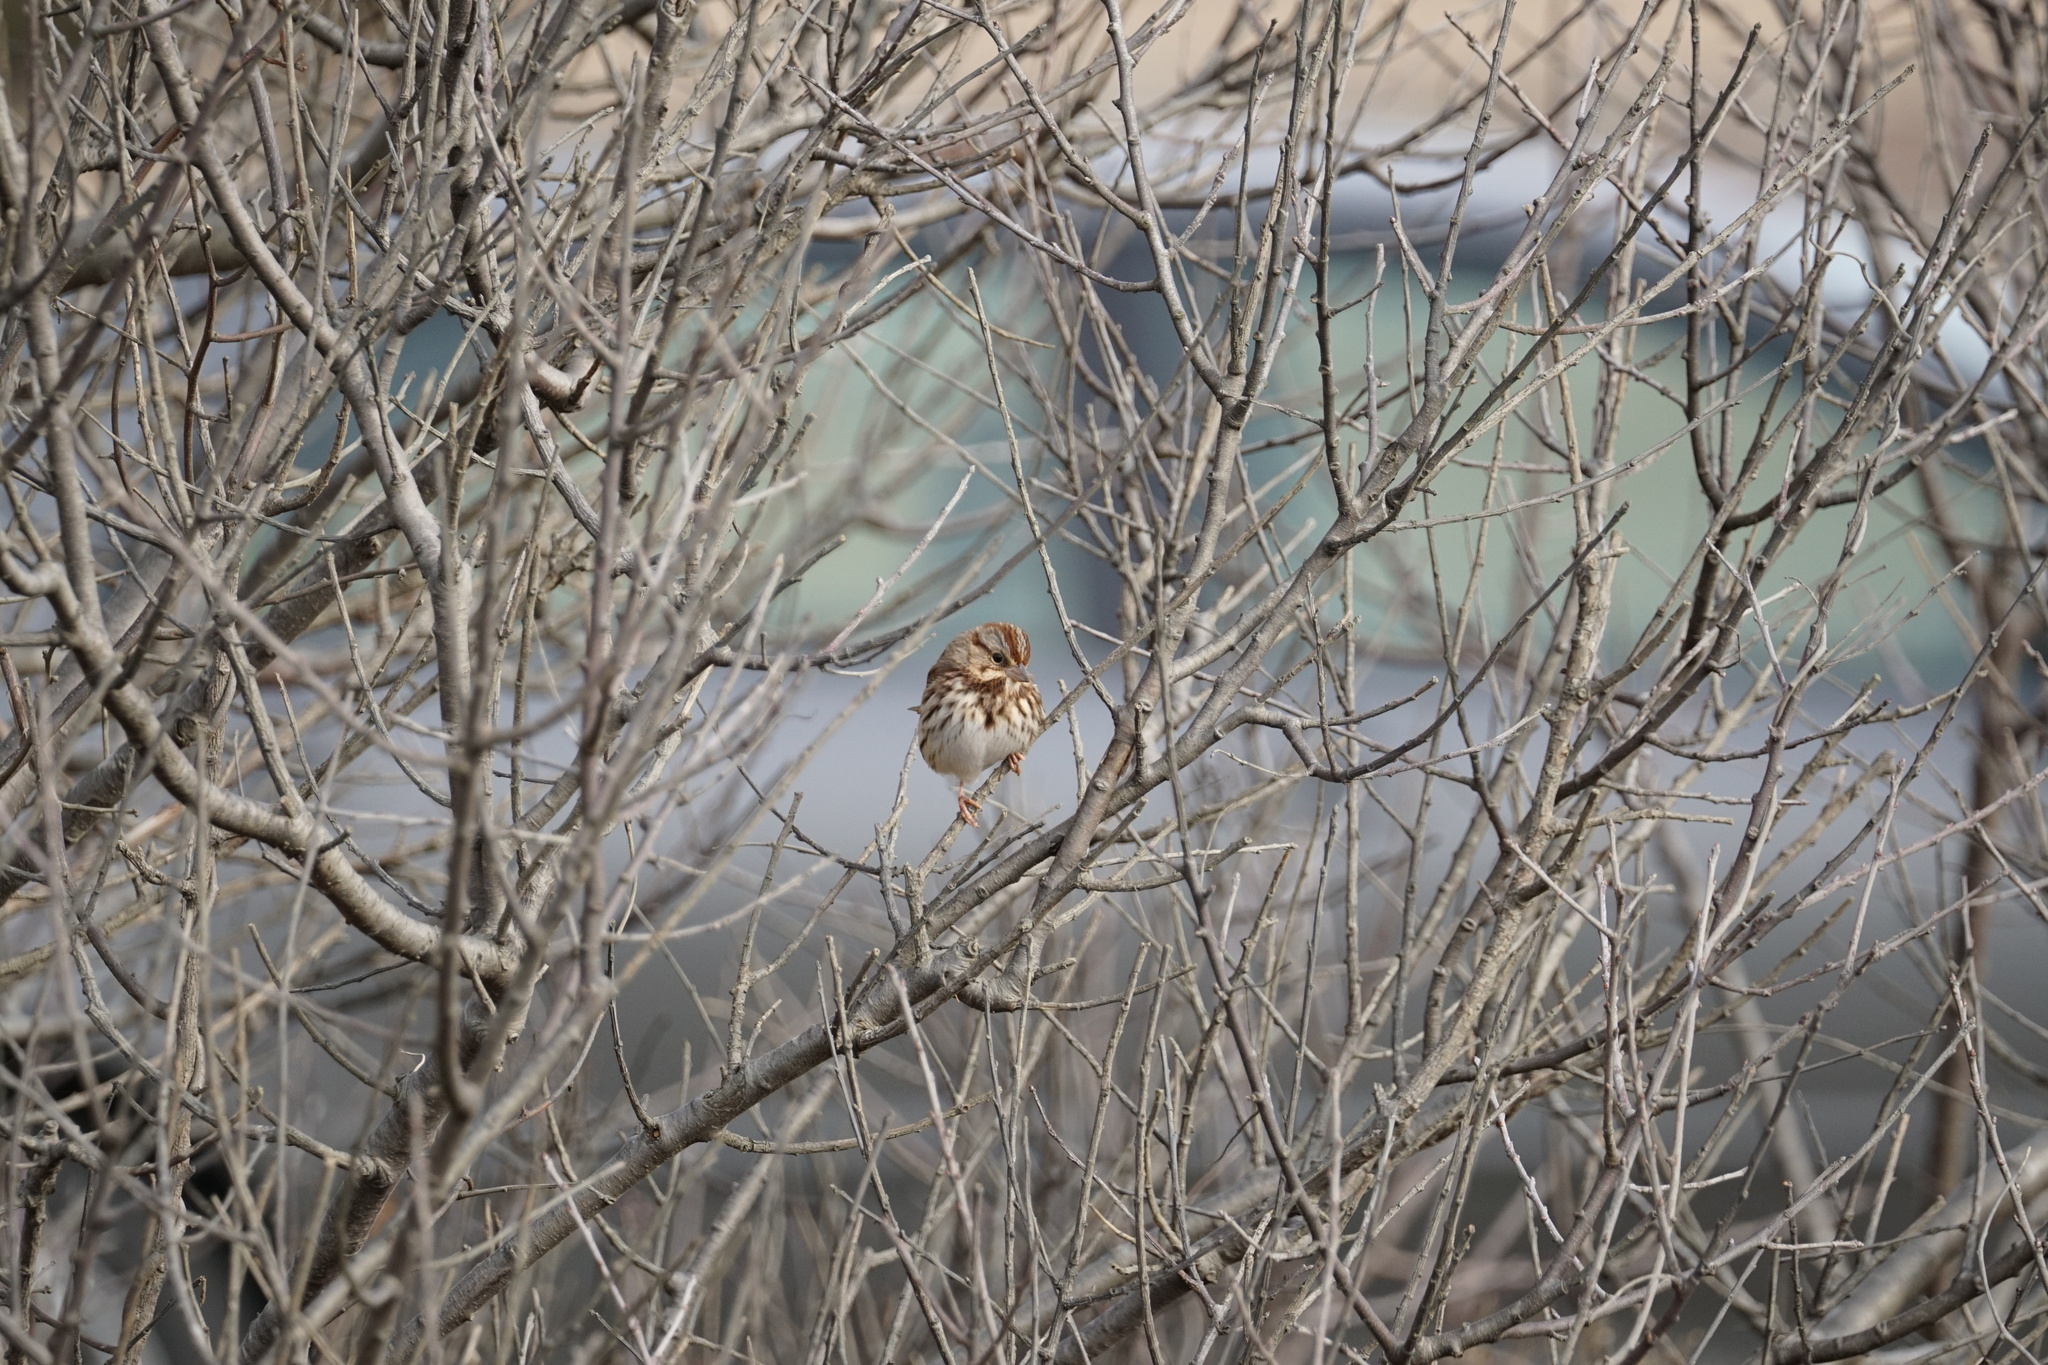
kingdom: Animalia
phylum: Chordata
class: Aves
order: Passeriformes
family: Passerellidae
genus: Melospiza
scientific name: Melospiza melodia
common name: Song sparrow
